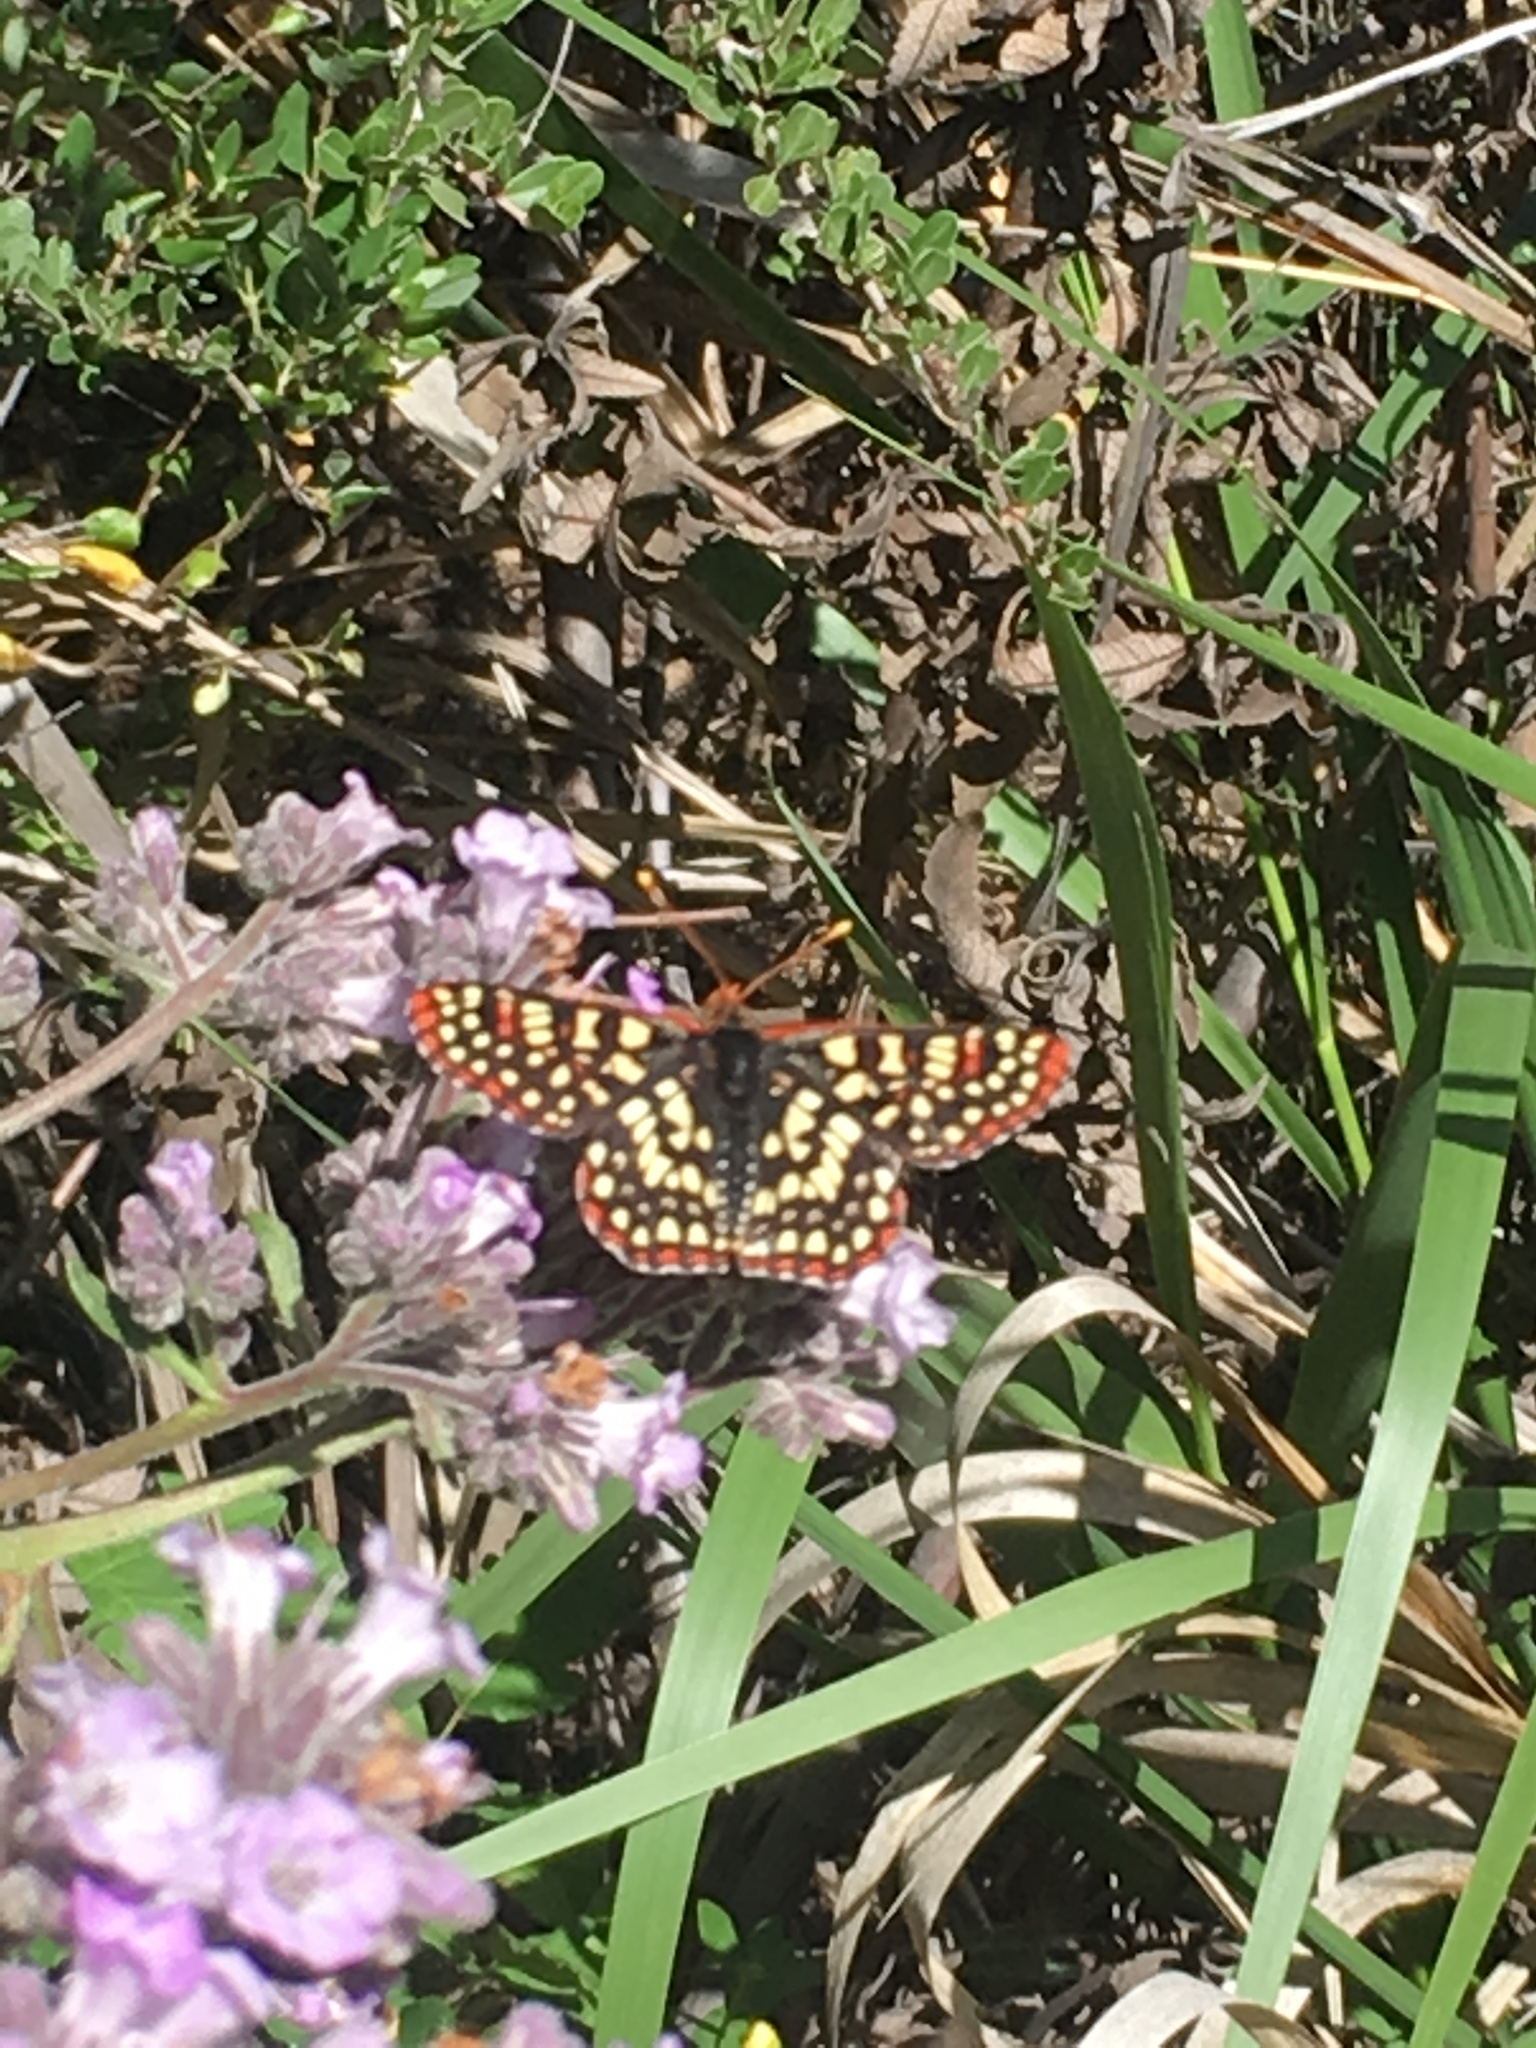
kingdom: Animalia
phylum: Arthropoda
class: Insecta
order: Lepidoptera
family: Nymphalidae
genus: Occidryas
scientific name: Occidryas chalcedona
